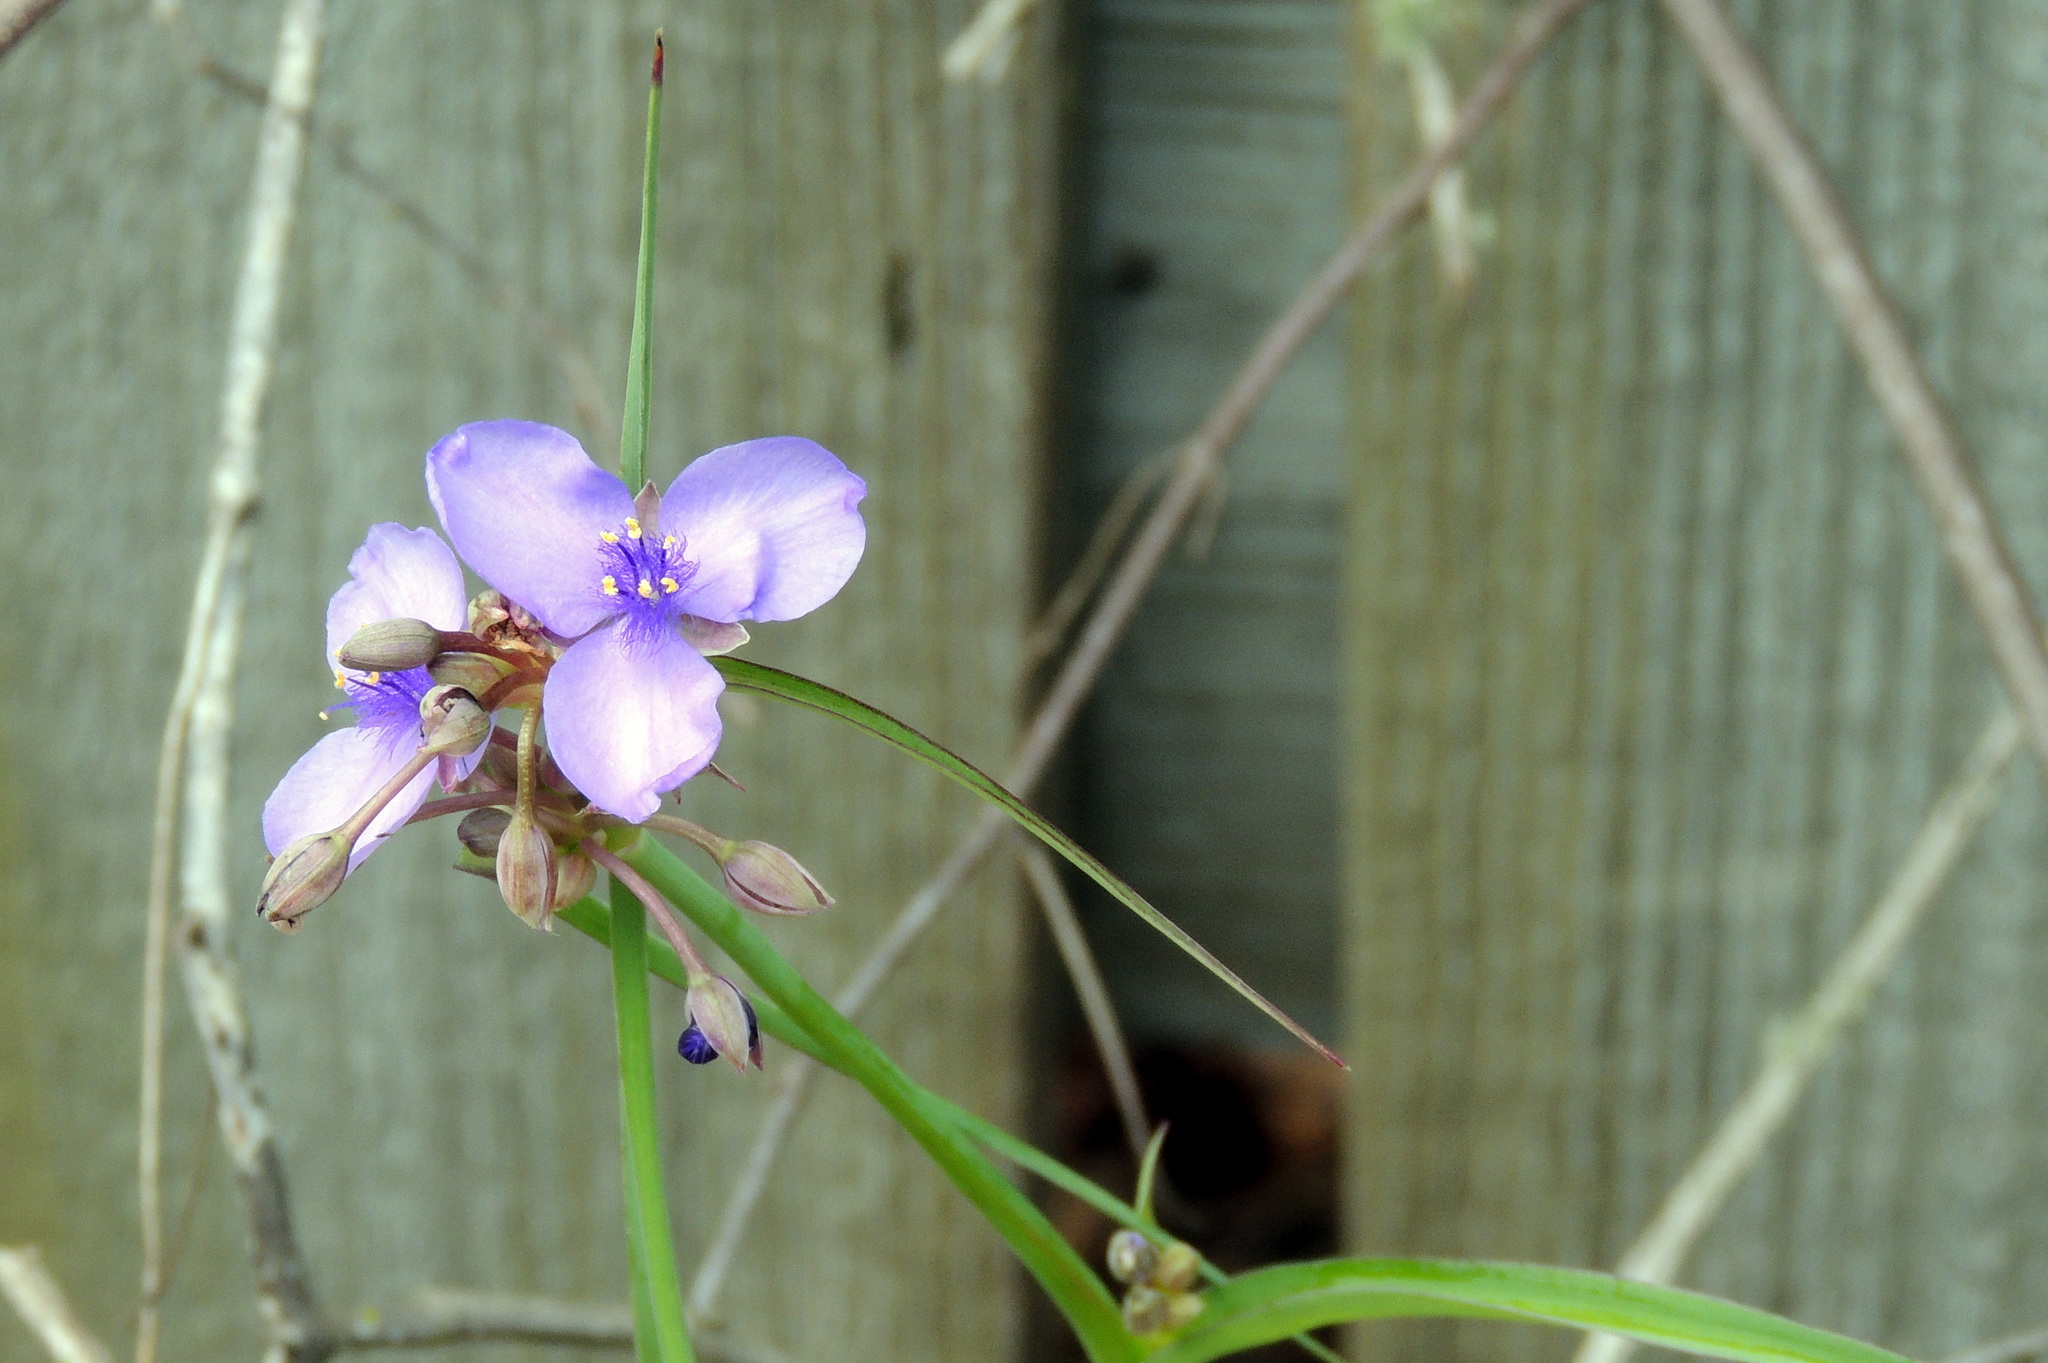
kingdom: Plantae
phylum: Tracheophyta
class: Liliopsida
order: Commelinales
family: Commelinaceae
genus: Tradescantia
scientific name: Tradescantia ohiensis
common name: Ohio spiderwort
